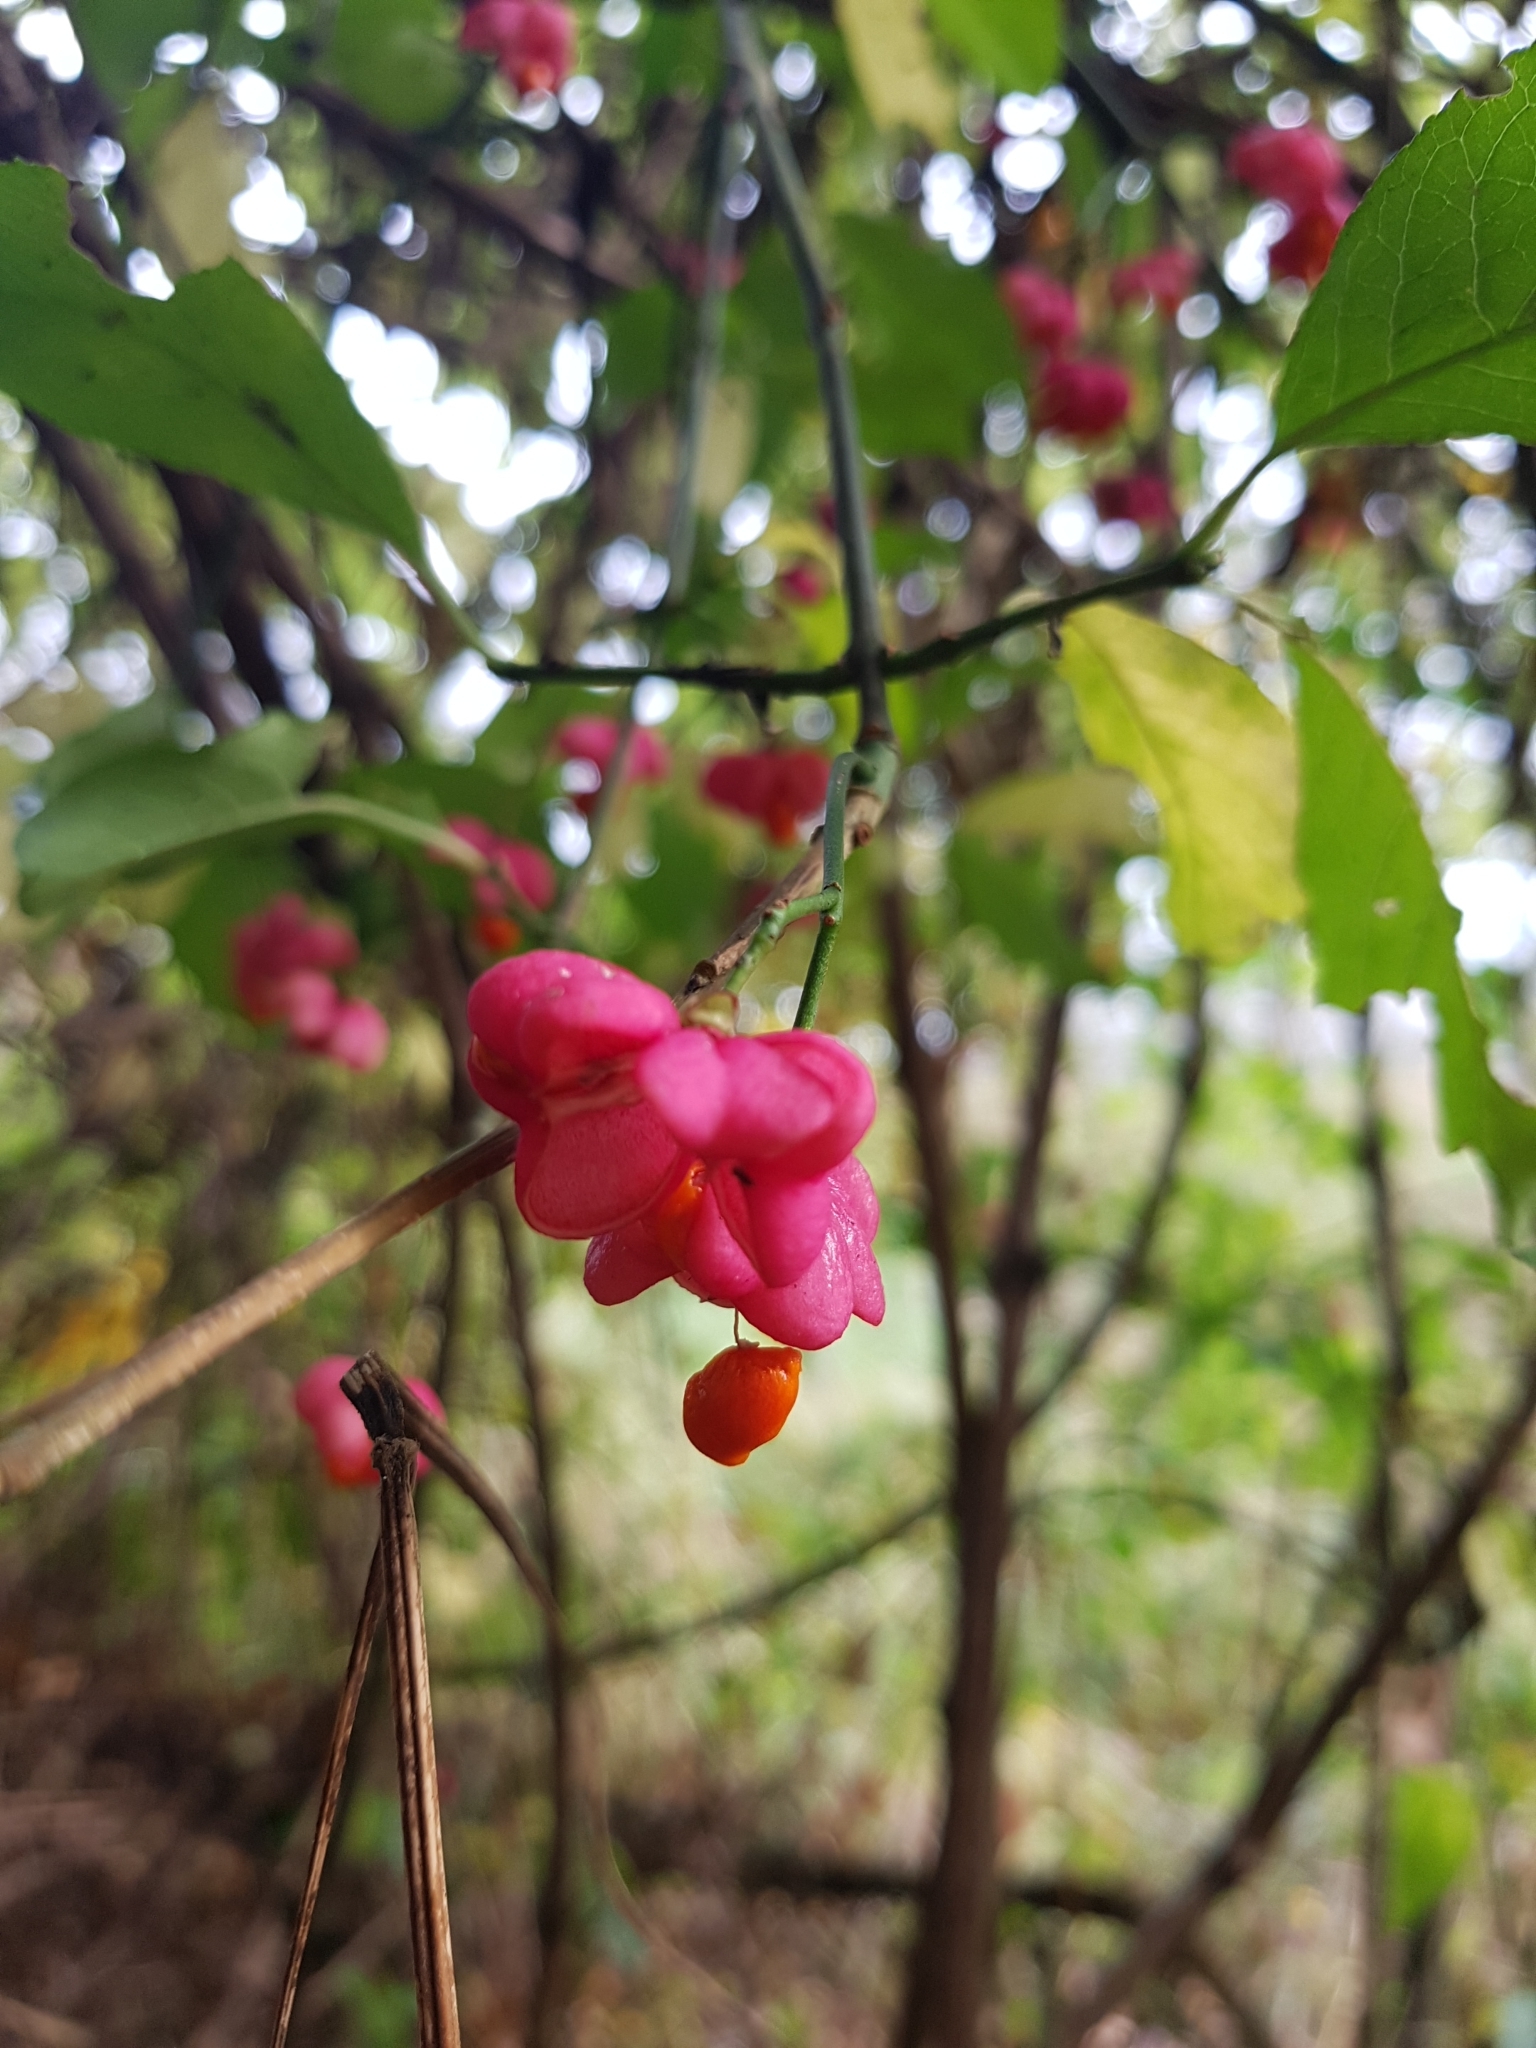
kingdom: Plantae
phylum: Tracheophyta
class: Magnoliopsida
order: Celastrales
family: Celastraceae
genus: Euonymus
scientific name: Euonymus europaeus
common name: Spindle
